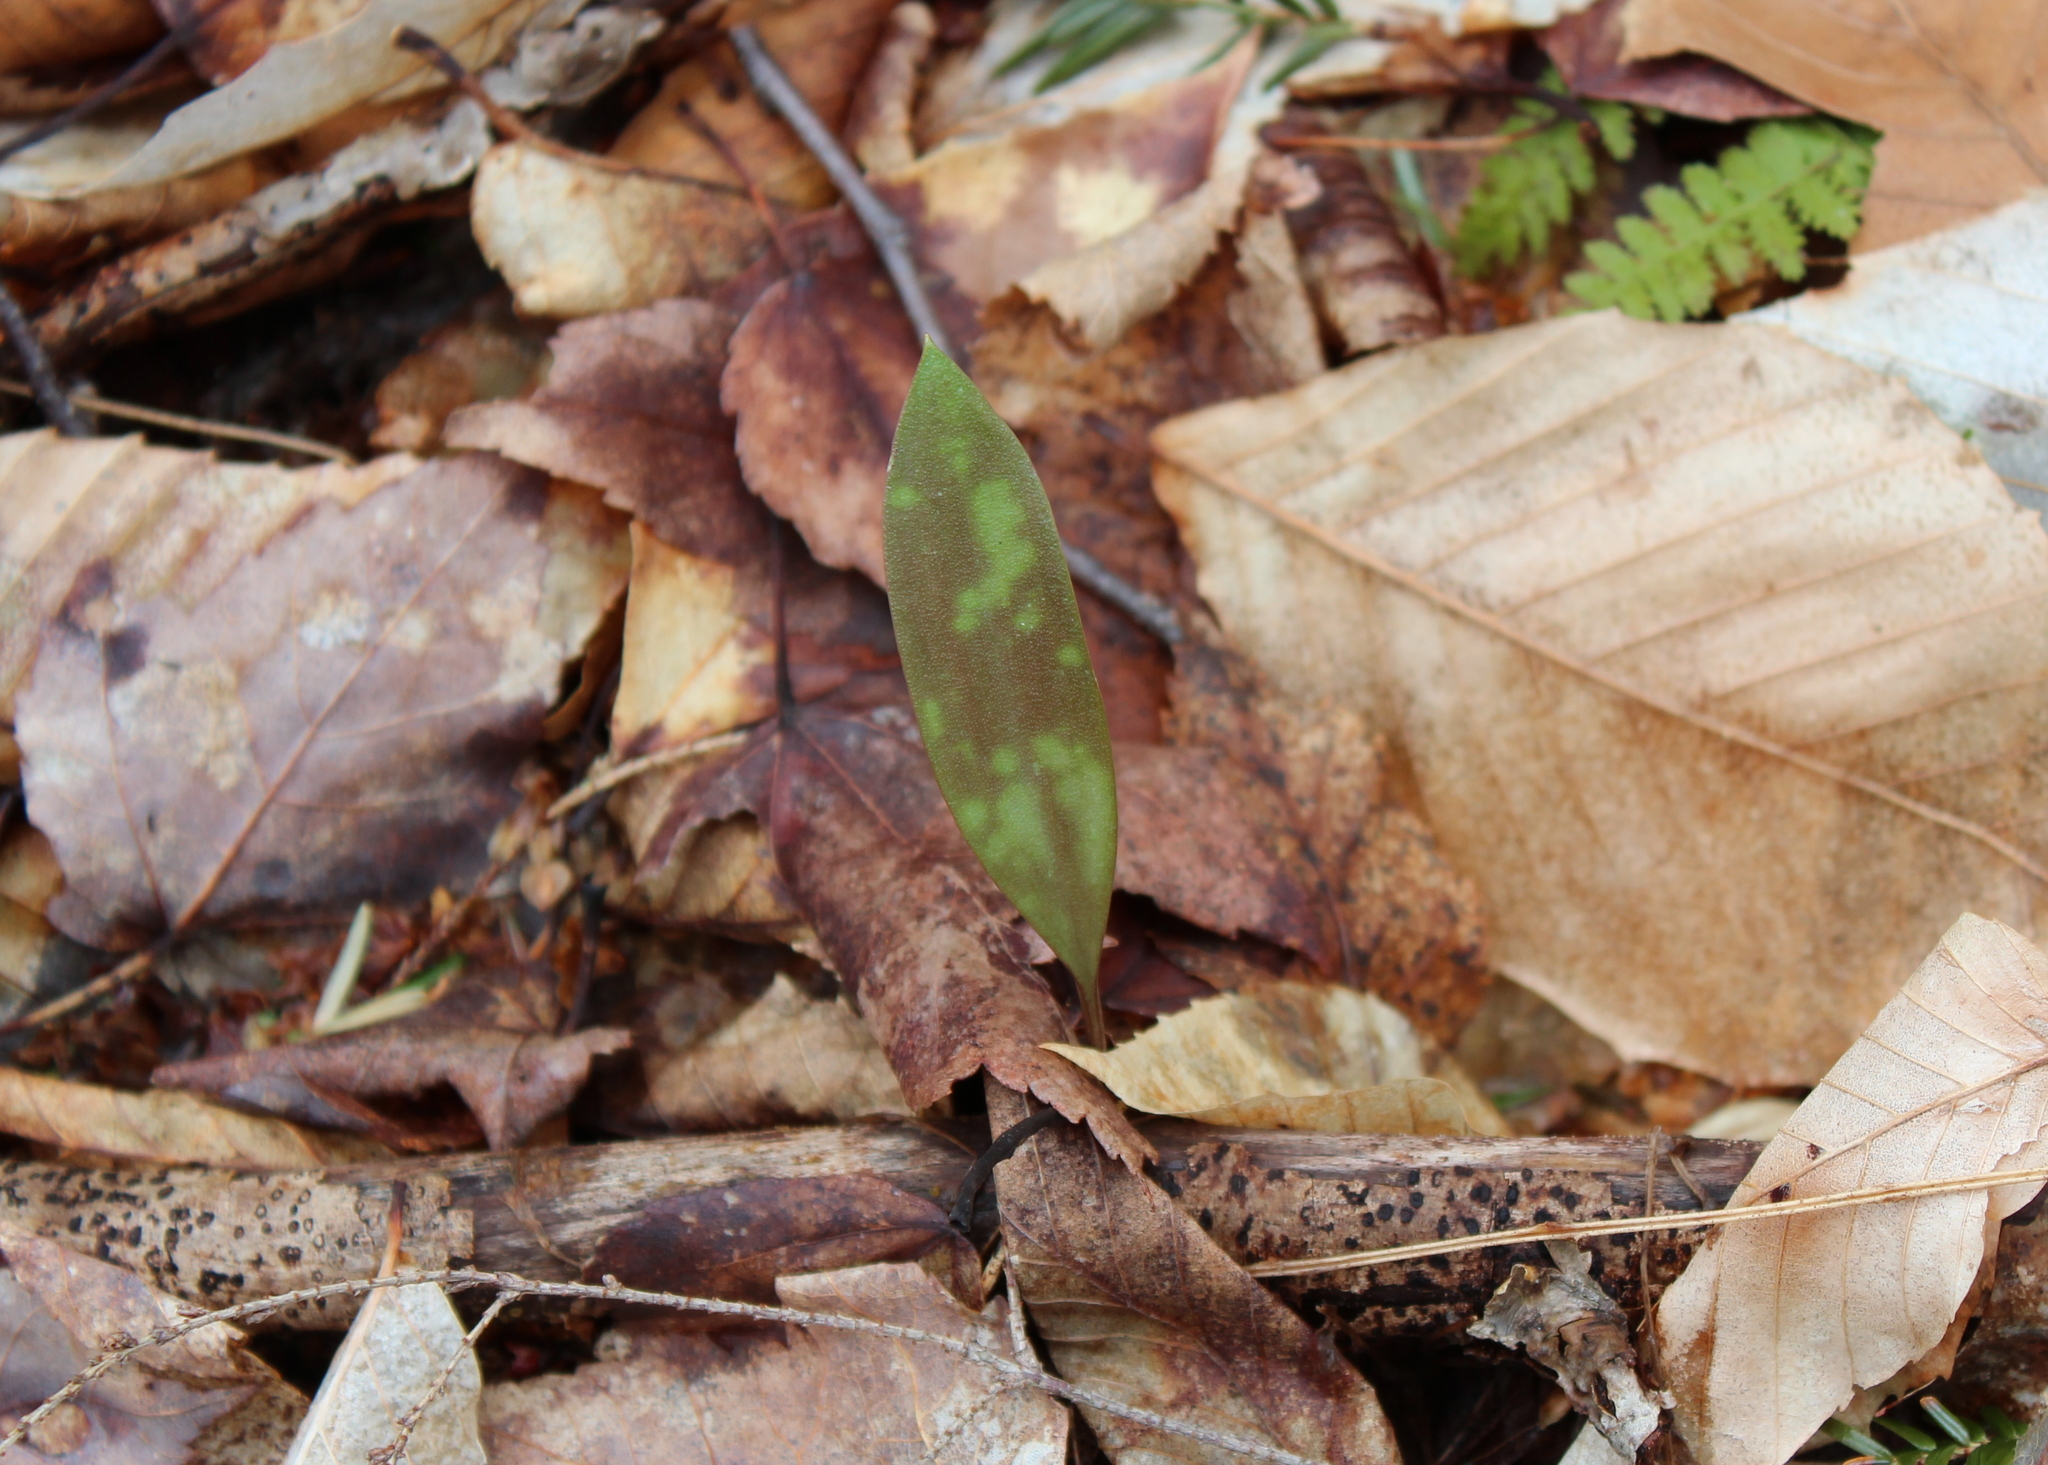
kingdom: Plantae
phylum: Tracheophyta
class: Liliopsida
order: Liliales
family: Liliaceae
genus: Erythronium
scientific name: Erythronium americanum
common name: Yellow adder's-tongue
